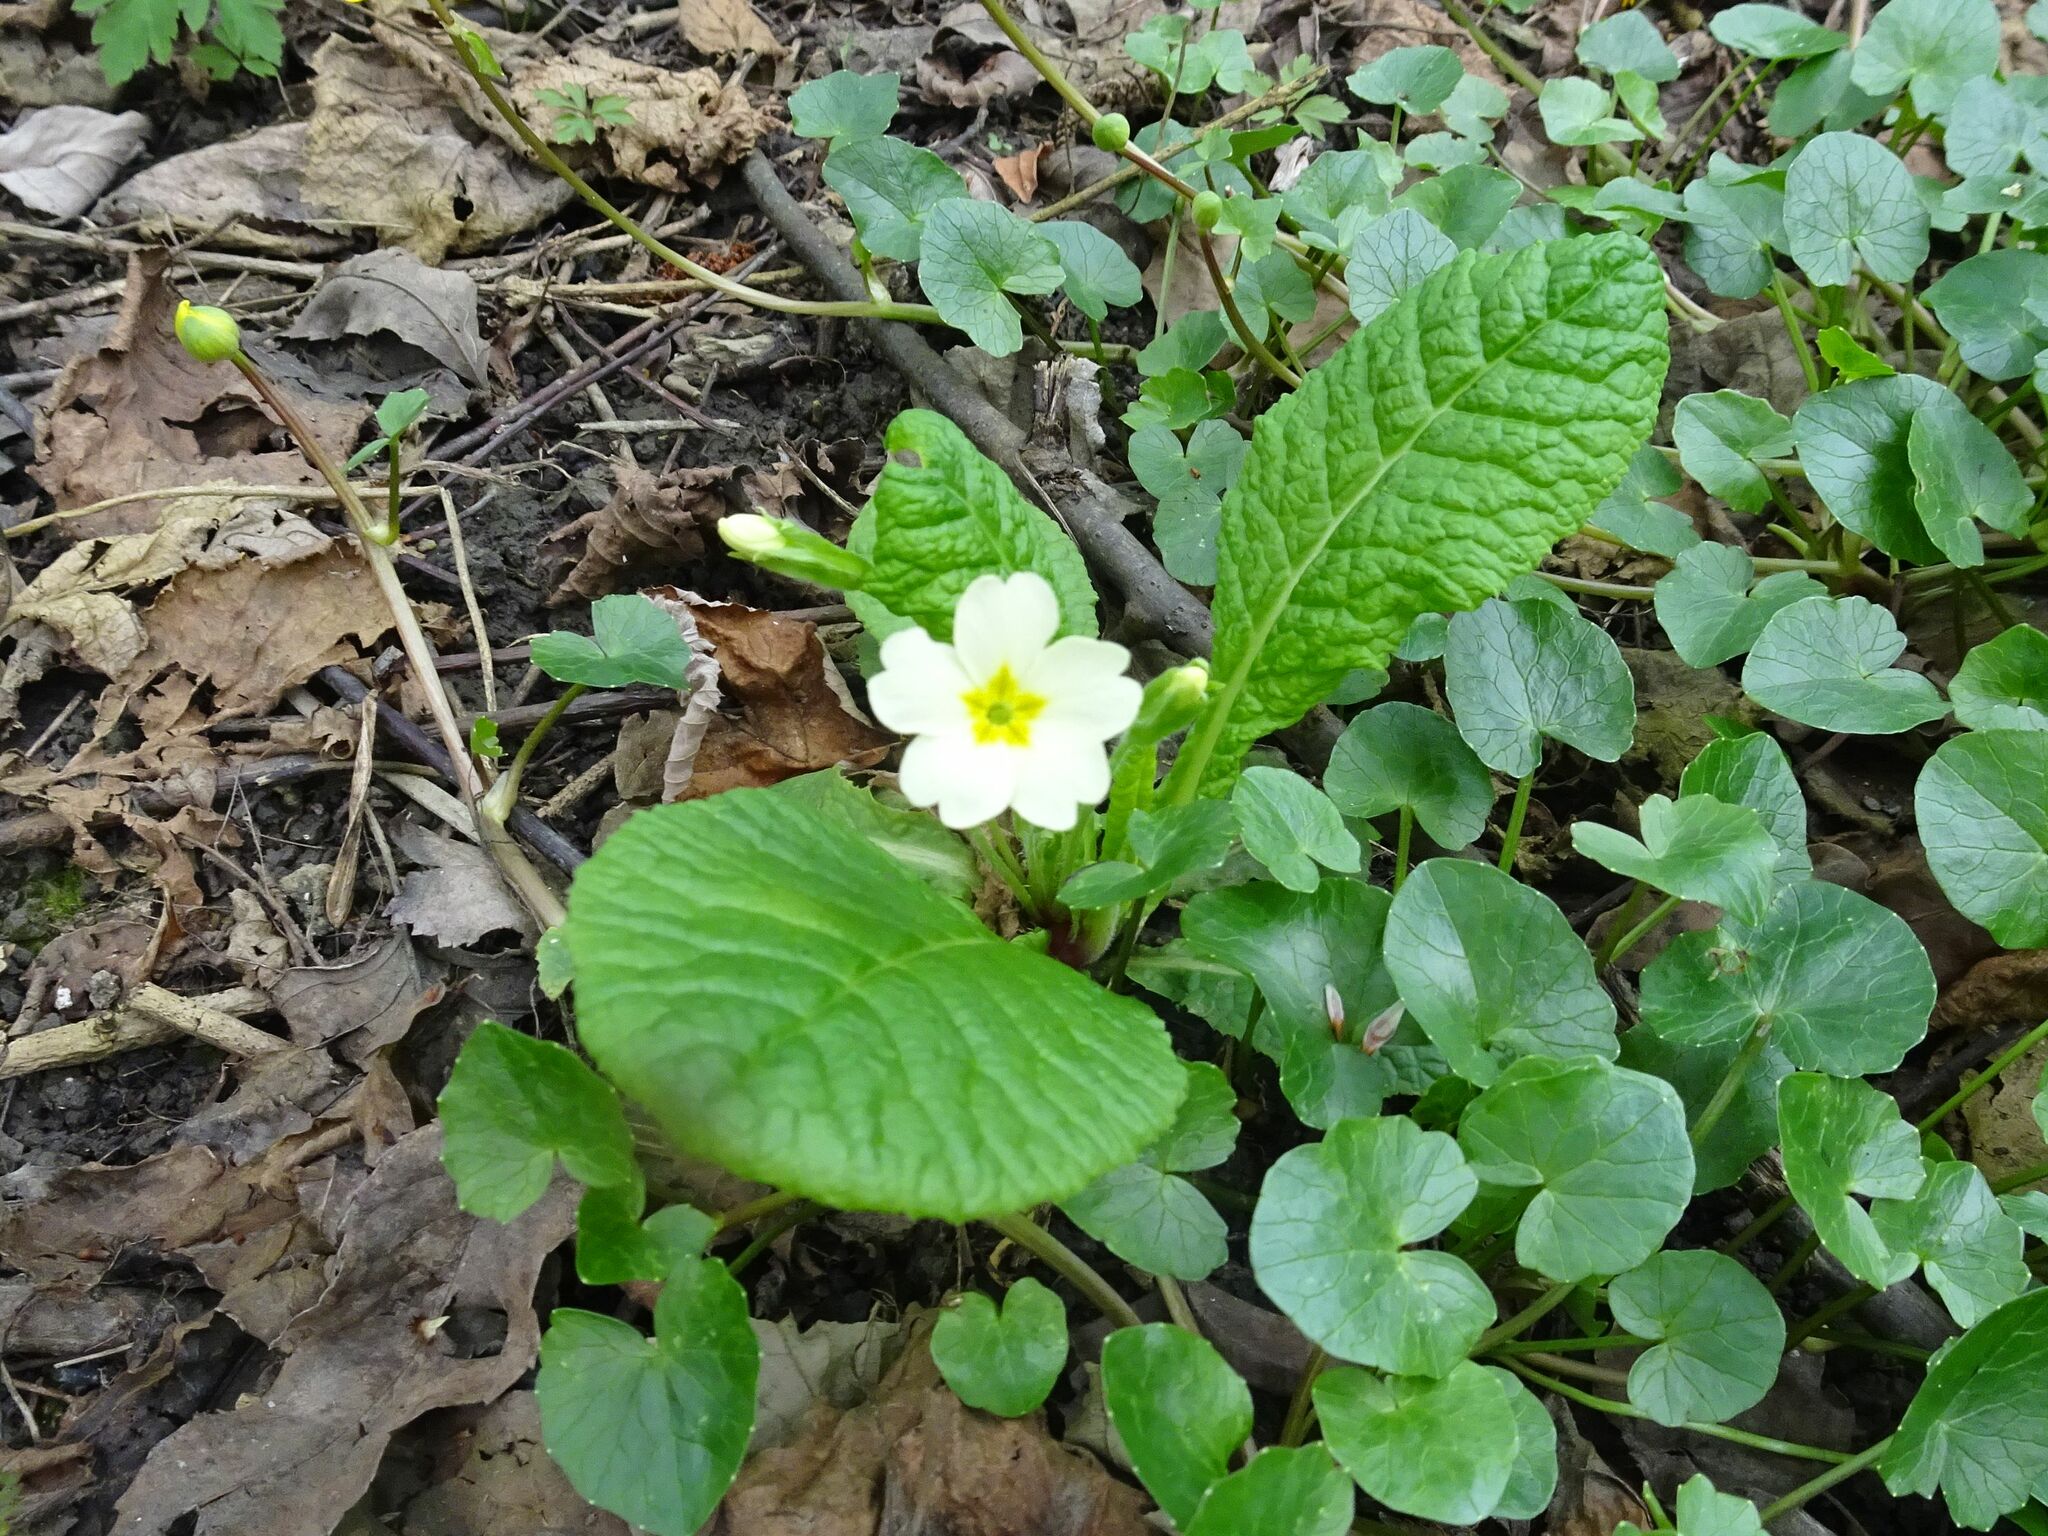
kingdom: Plantae
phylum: Tracheophyta
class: Magnoliopsida
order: Ericales
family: Primulaceae
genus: Primula
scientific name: Primula vulgaris
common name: Primrose
